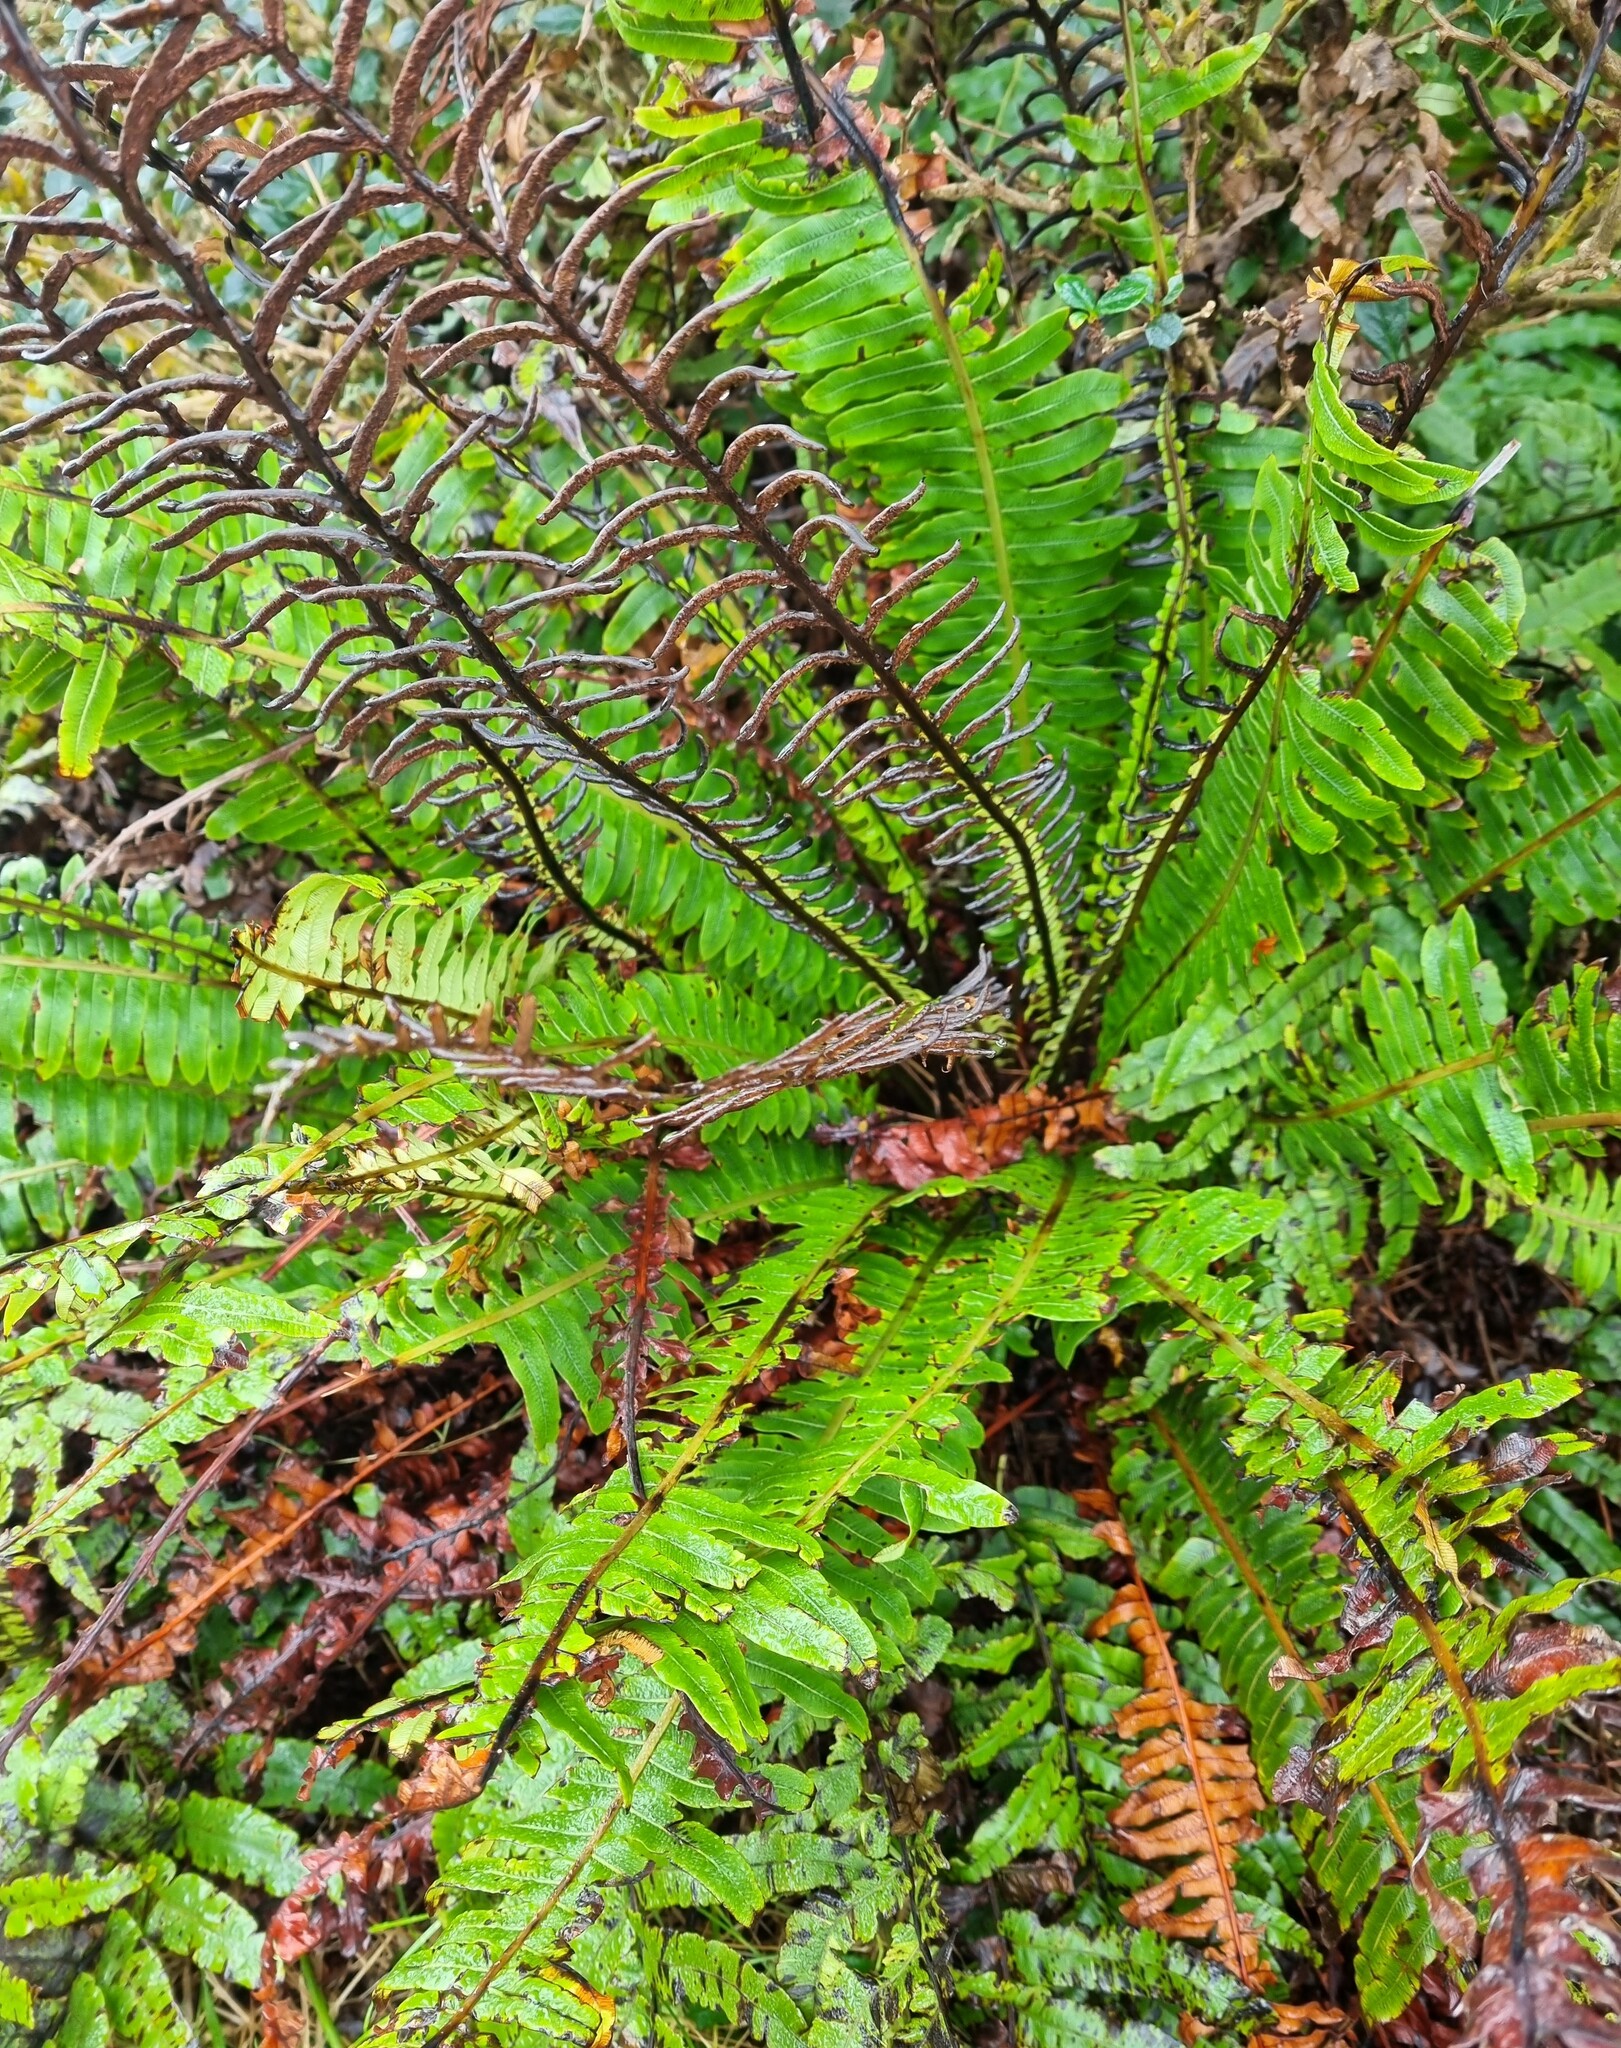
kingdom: Plantae
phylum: Tracheophyta
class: Polypodiopsida
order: Polypodiales
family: Blechnaceae
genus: Lomaria
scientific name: Lomaria discolor
